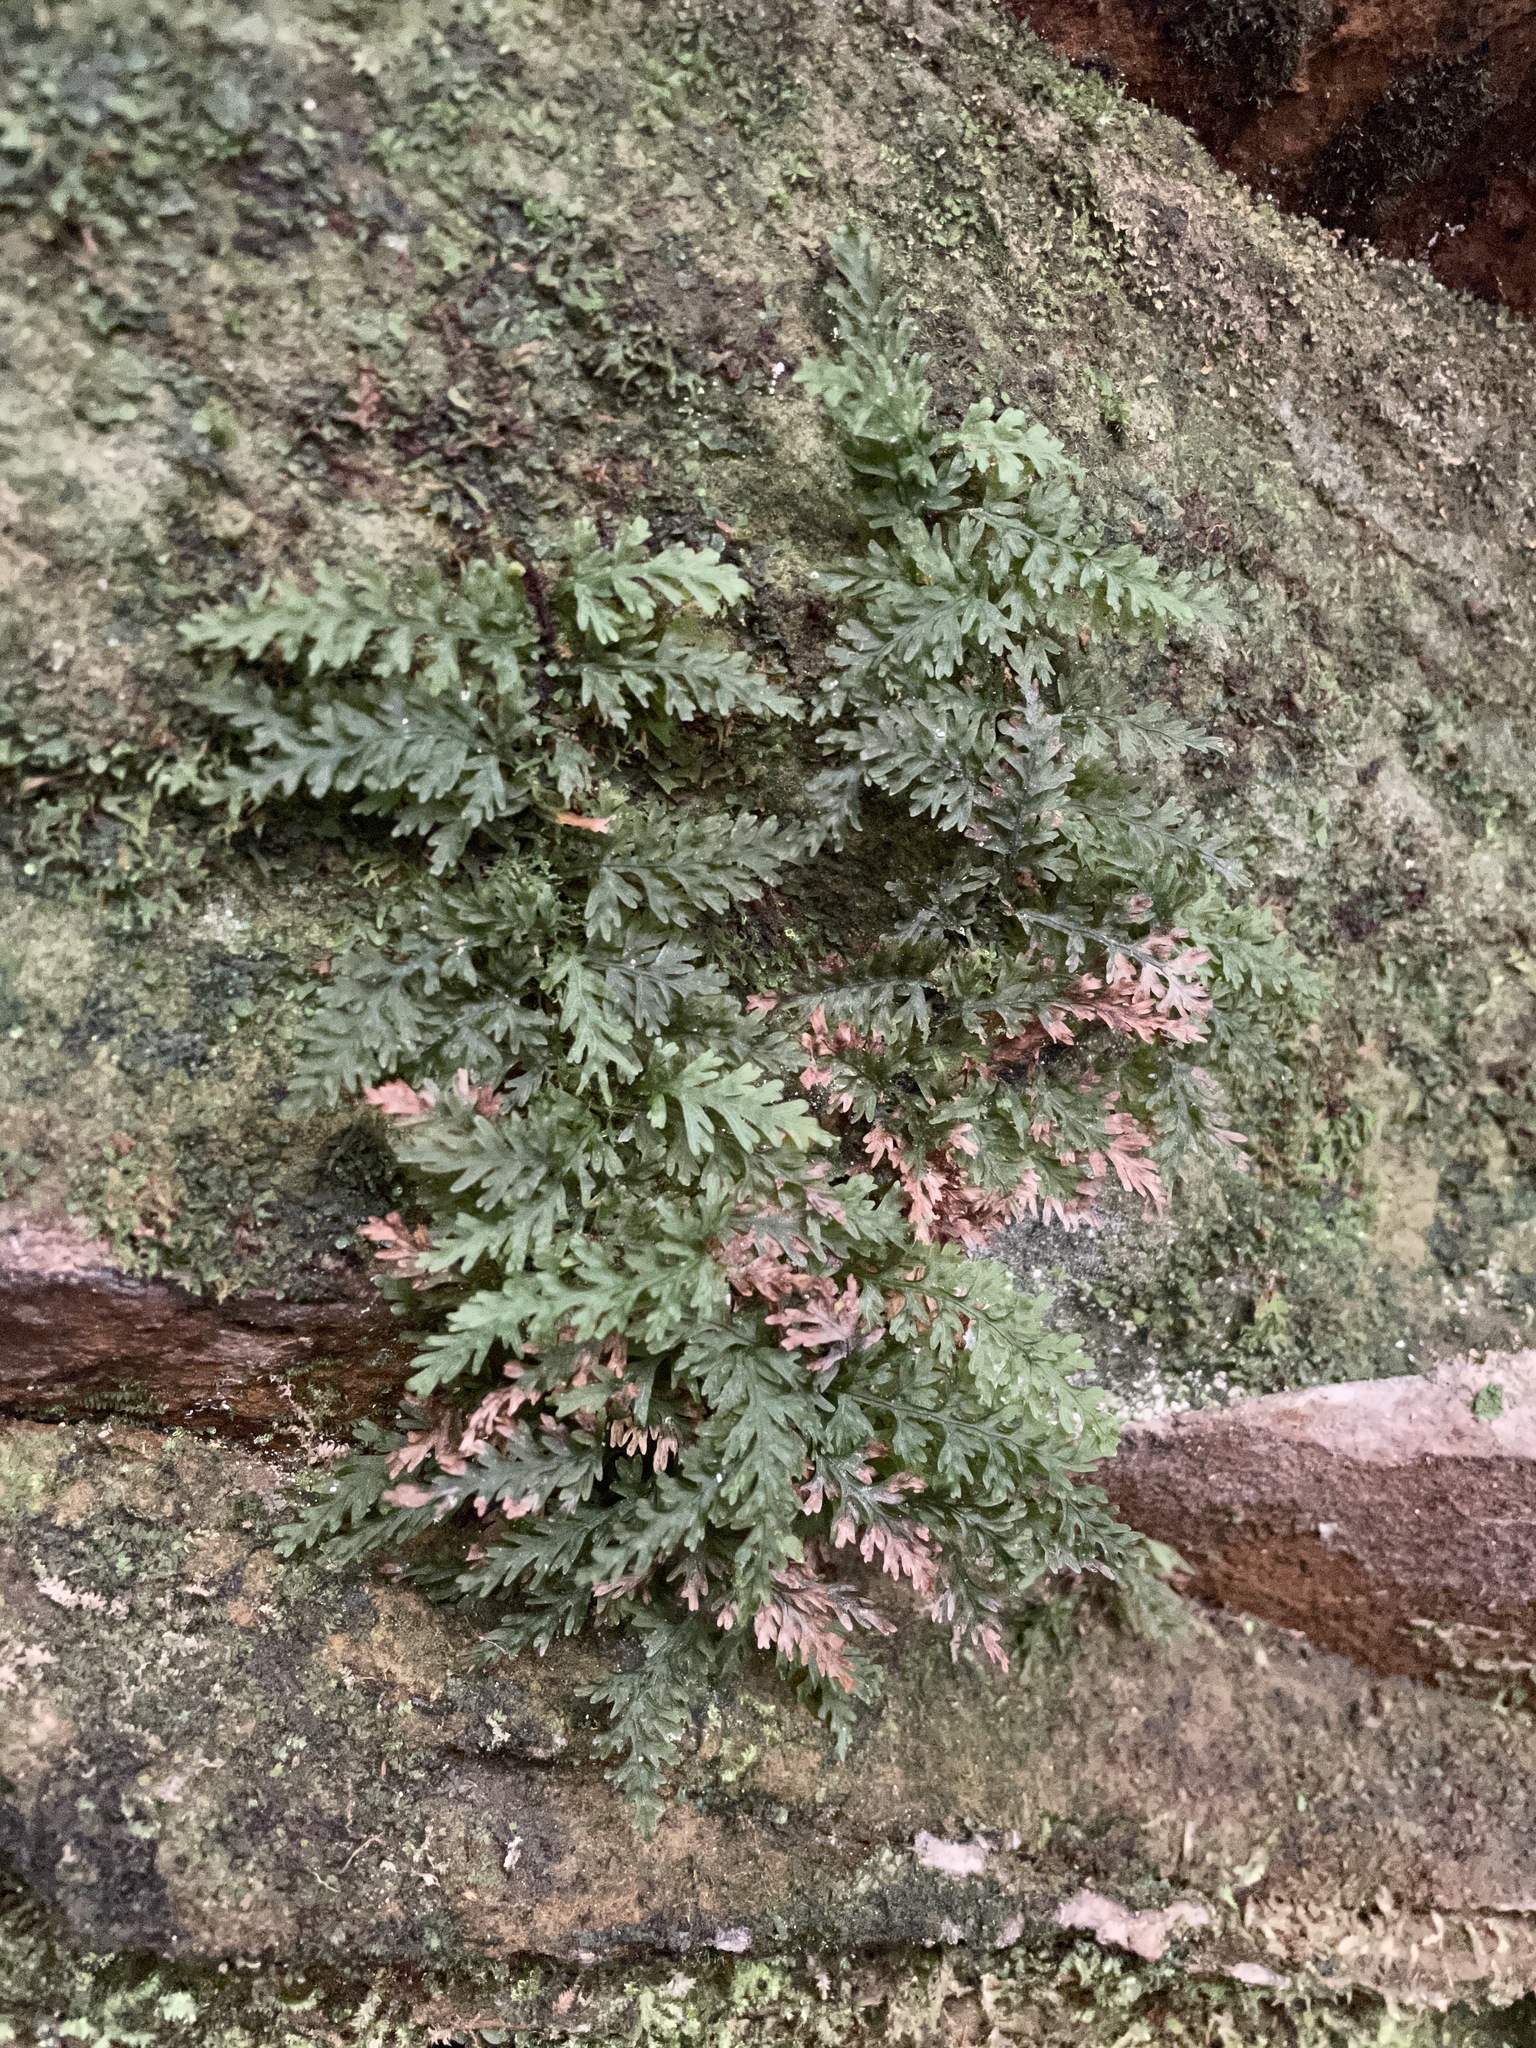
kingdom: Plantae
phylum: Tracheophyta
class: Polypodiopsida
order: Hymenophyllales
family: Hymenophyllaceae
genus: Vandenboschia
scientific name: Vandenboschia boschiana
